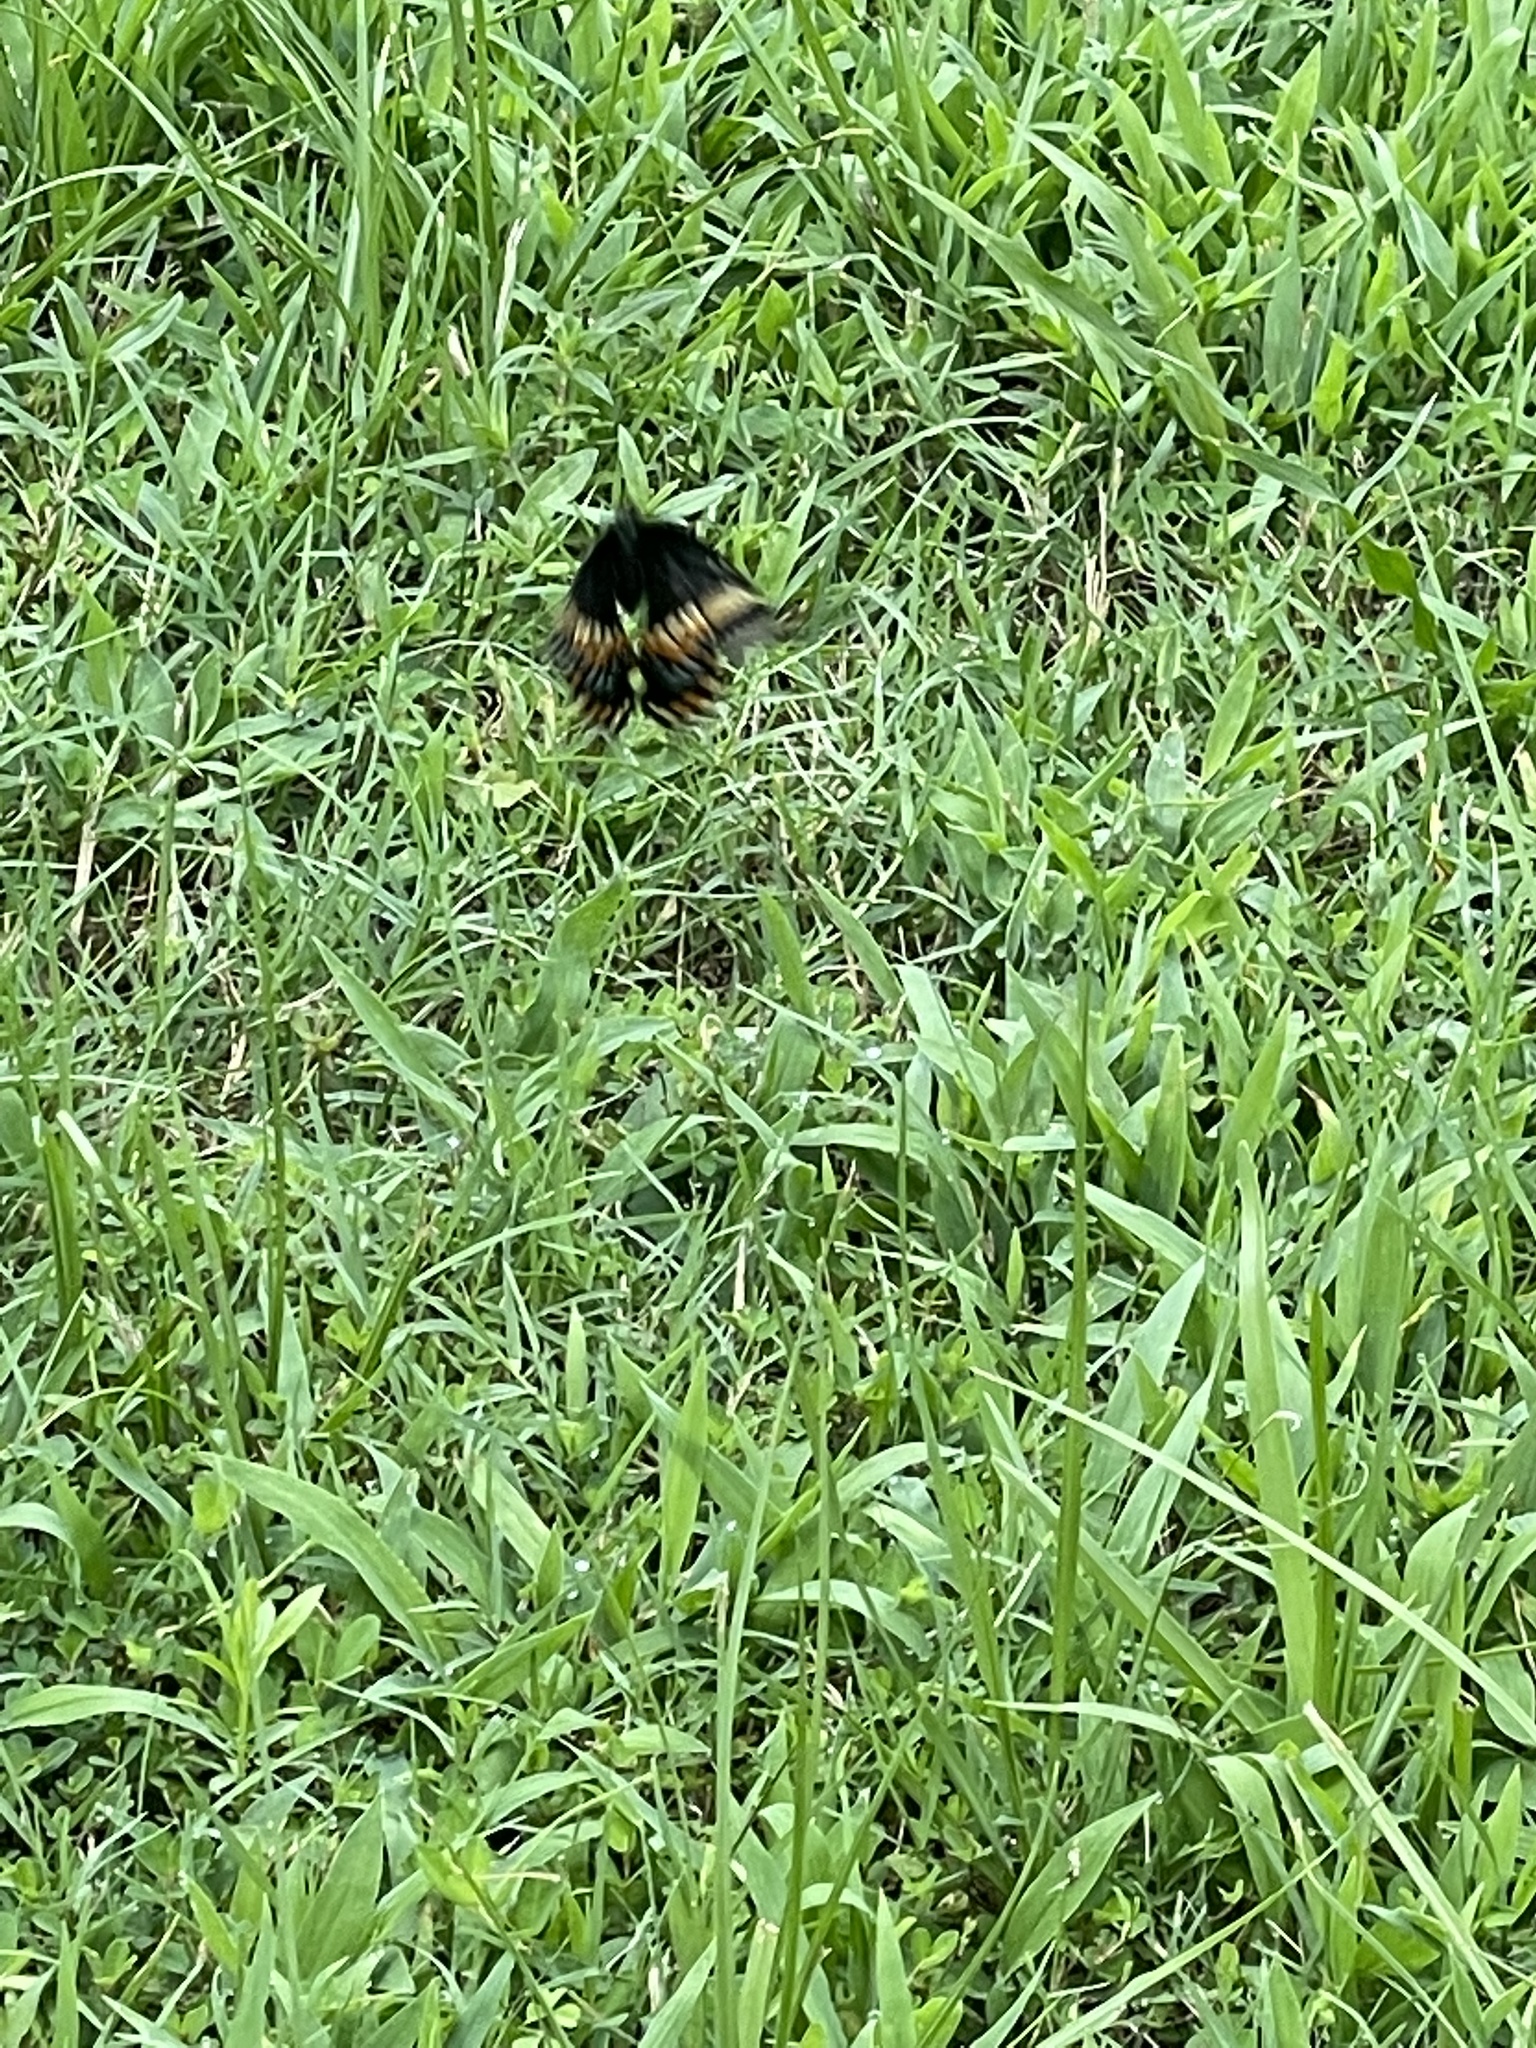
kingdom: Animalia
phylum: Arthropoda
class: Insecta
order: Lepidoptera
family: Papilionidae
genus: Papilio
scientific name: Papilio polyxenes
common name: Black swallowtail
